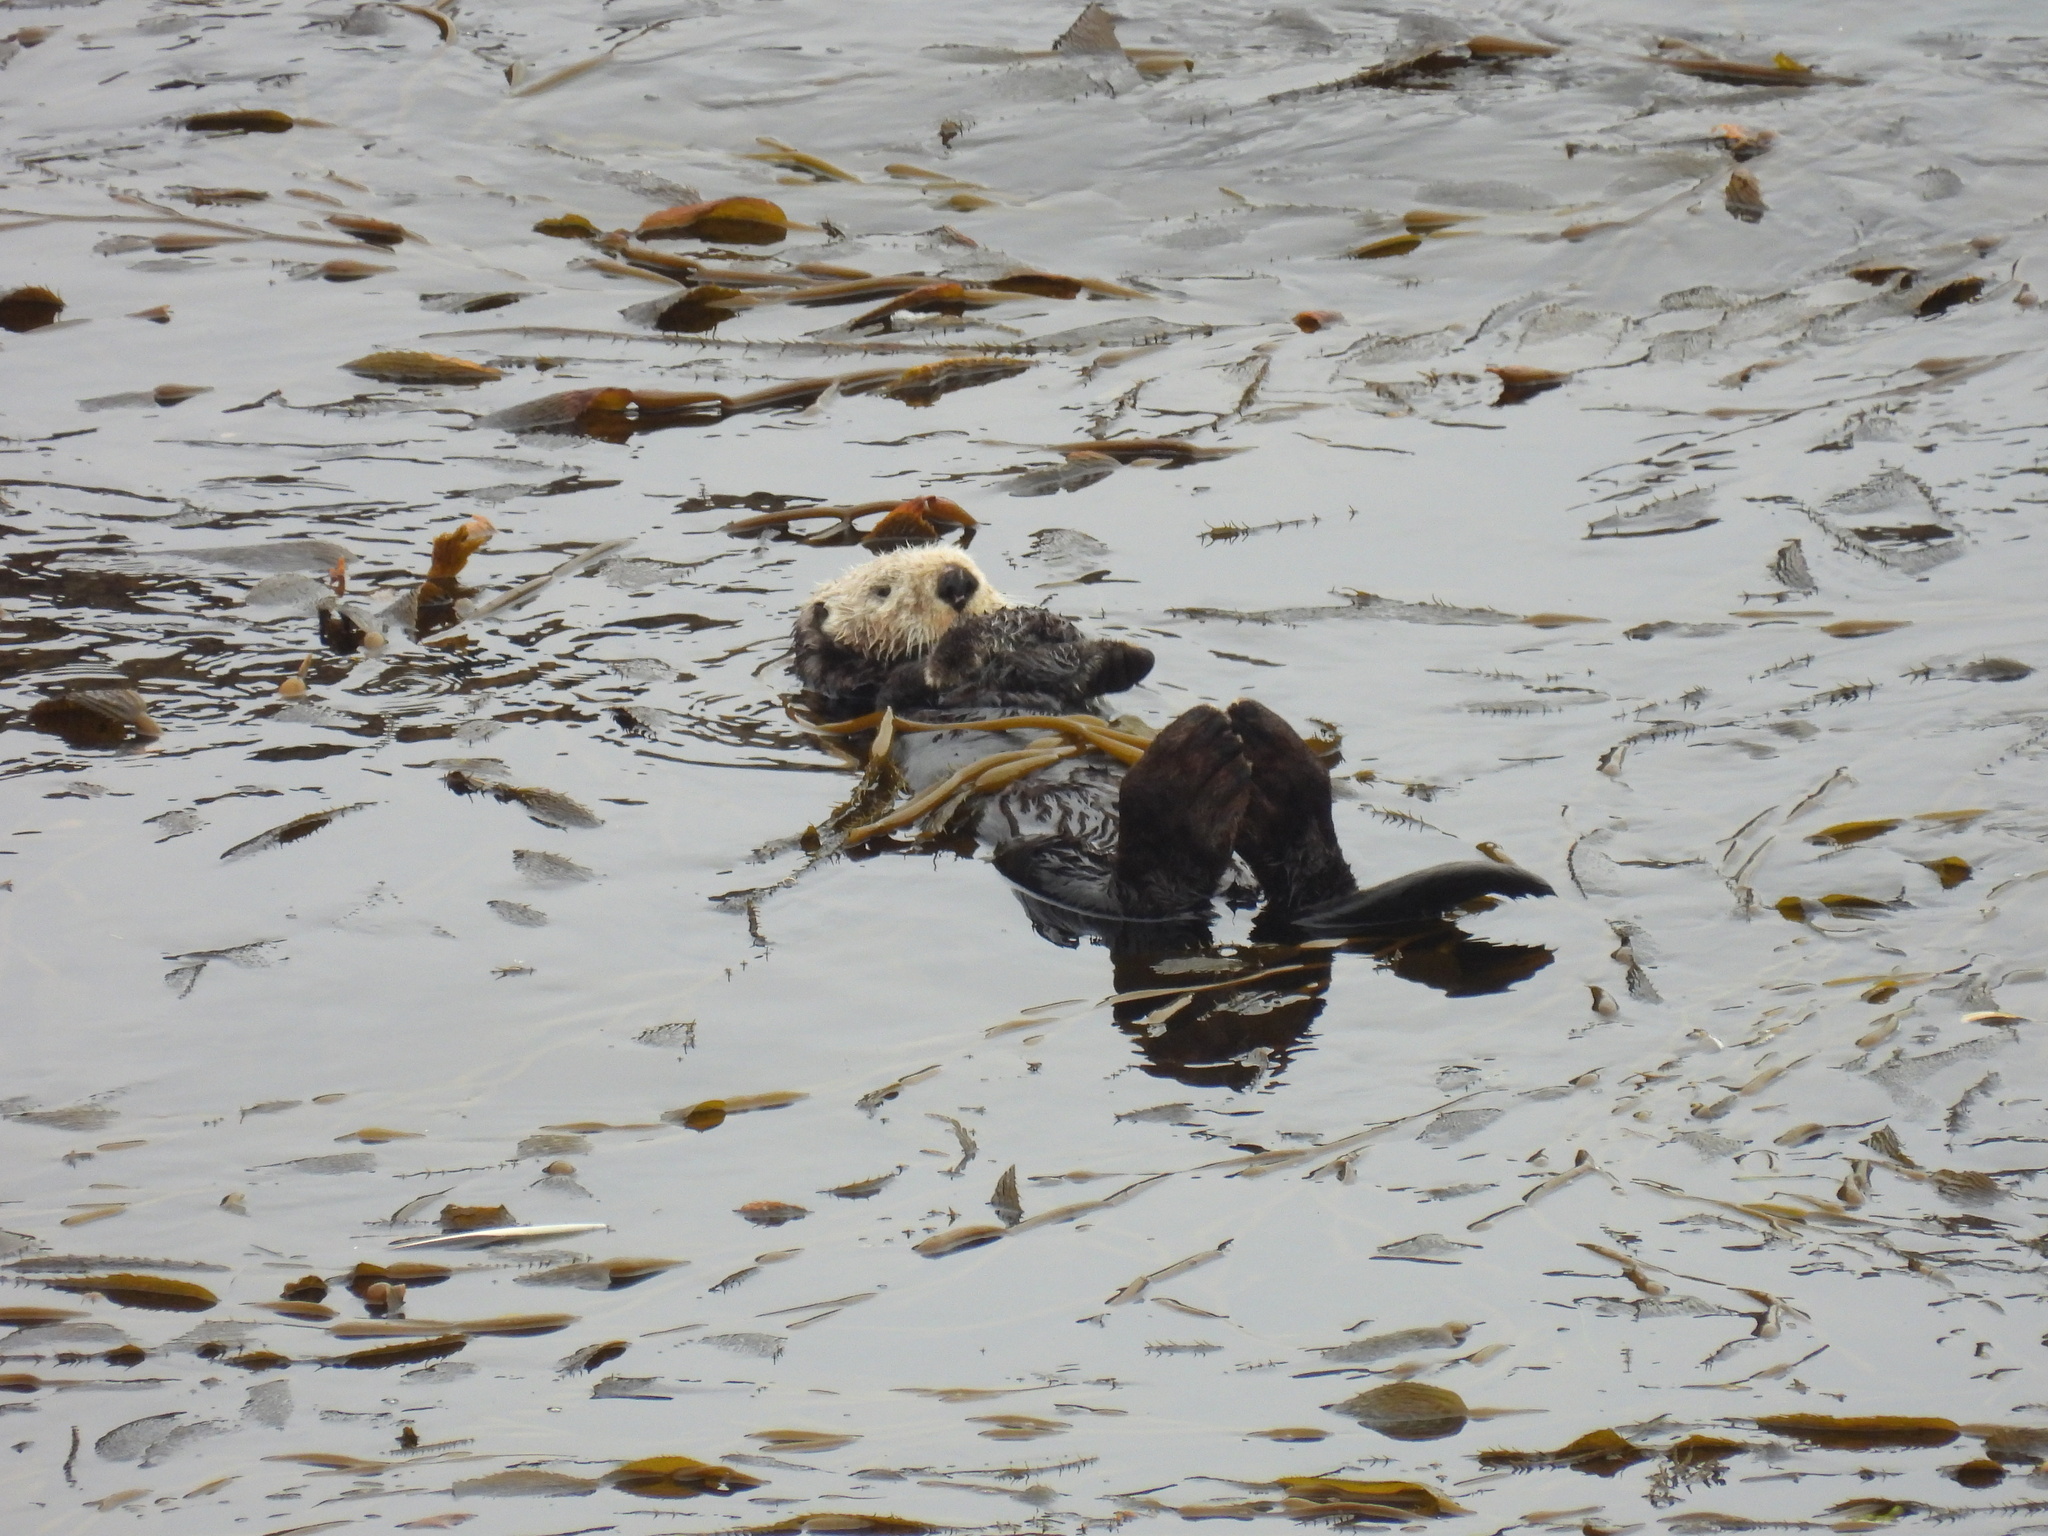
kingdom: Animalia
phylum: Chordata
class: Mammalia
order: Carnivora
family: Mustelidae
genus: Enhydra
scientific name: Enhydra lutris
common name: Sea otter
